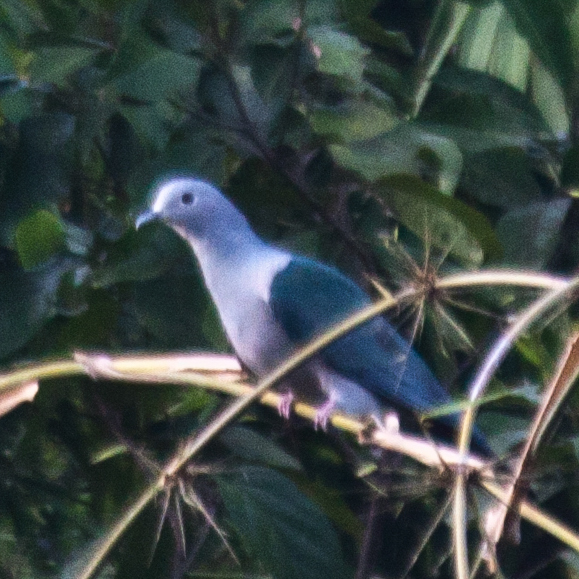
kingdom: Animalia
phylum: Chordata
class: Aves
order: Columbiformes
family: Columbidae
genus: Ducula
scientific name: Ducula aenea
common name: Green imperial pigeon
